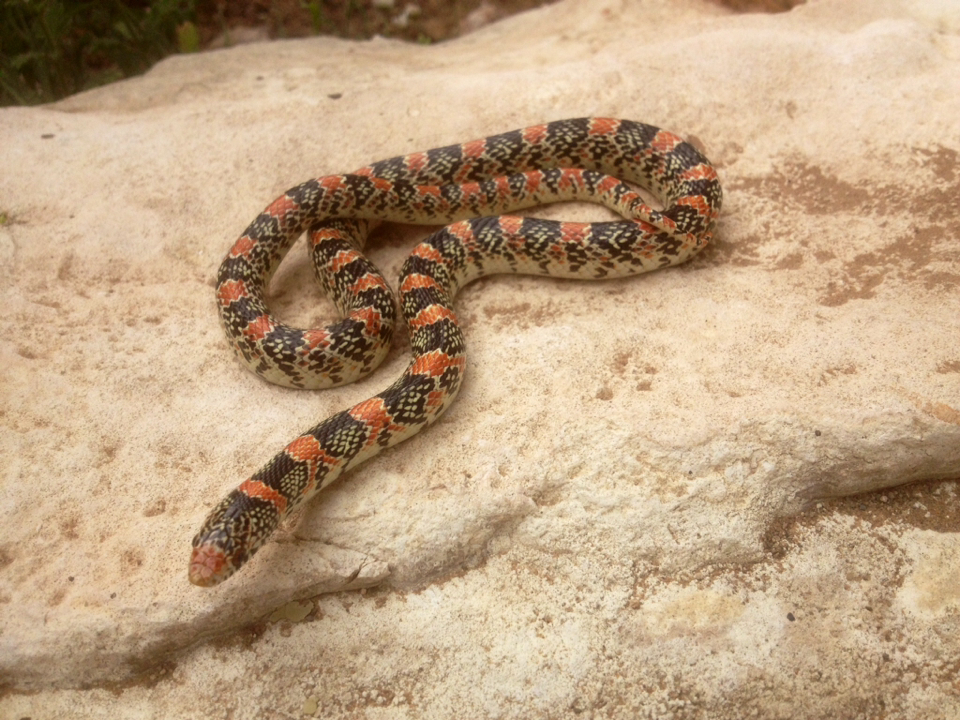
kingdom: Animalia
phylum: Chordata
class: Squamata
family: Colubridae
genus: Rhinocheilus
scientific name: Rhinocheilus lecontei
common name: Longnose snake
